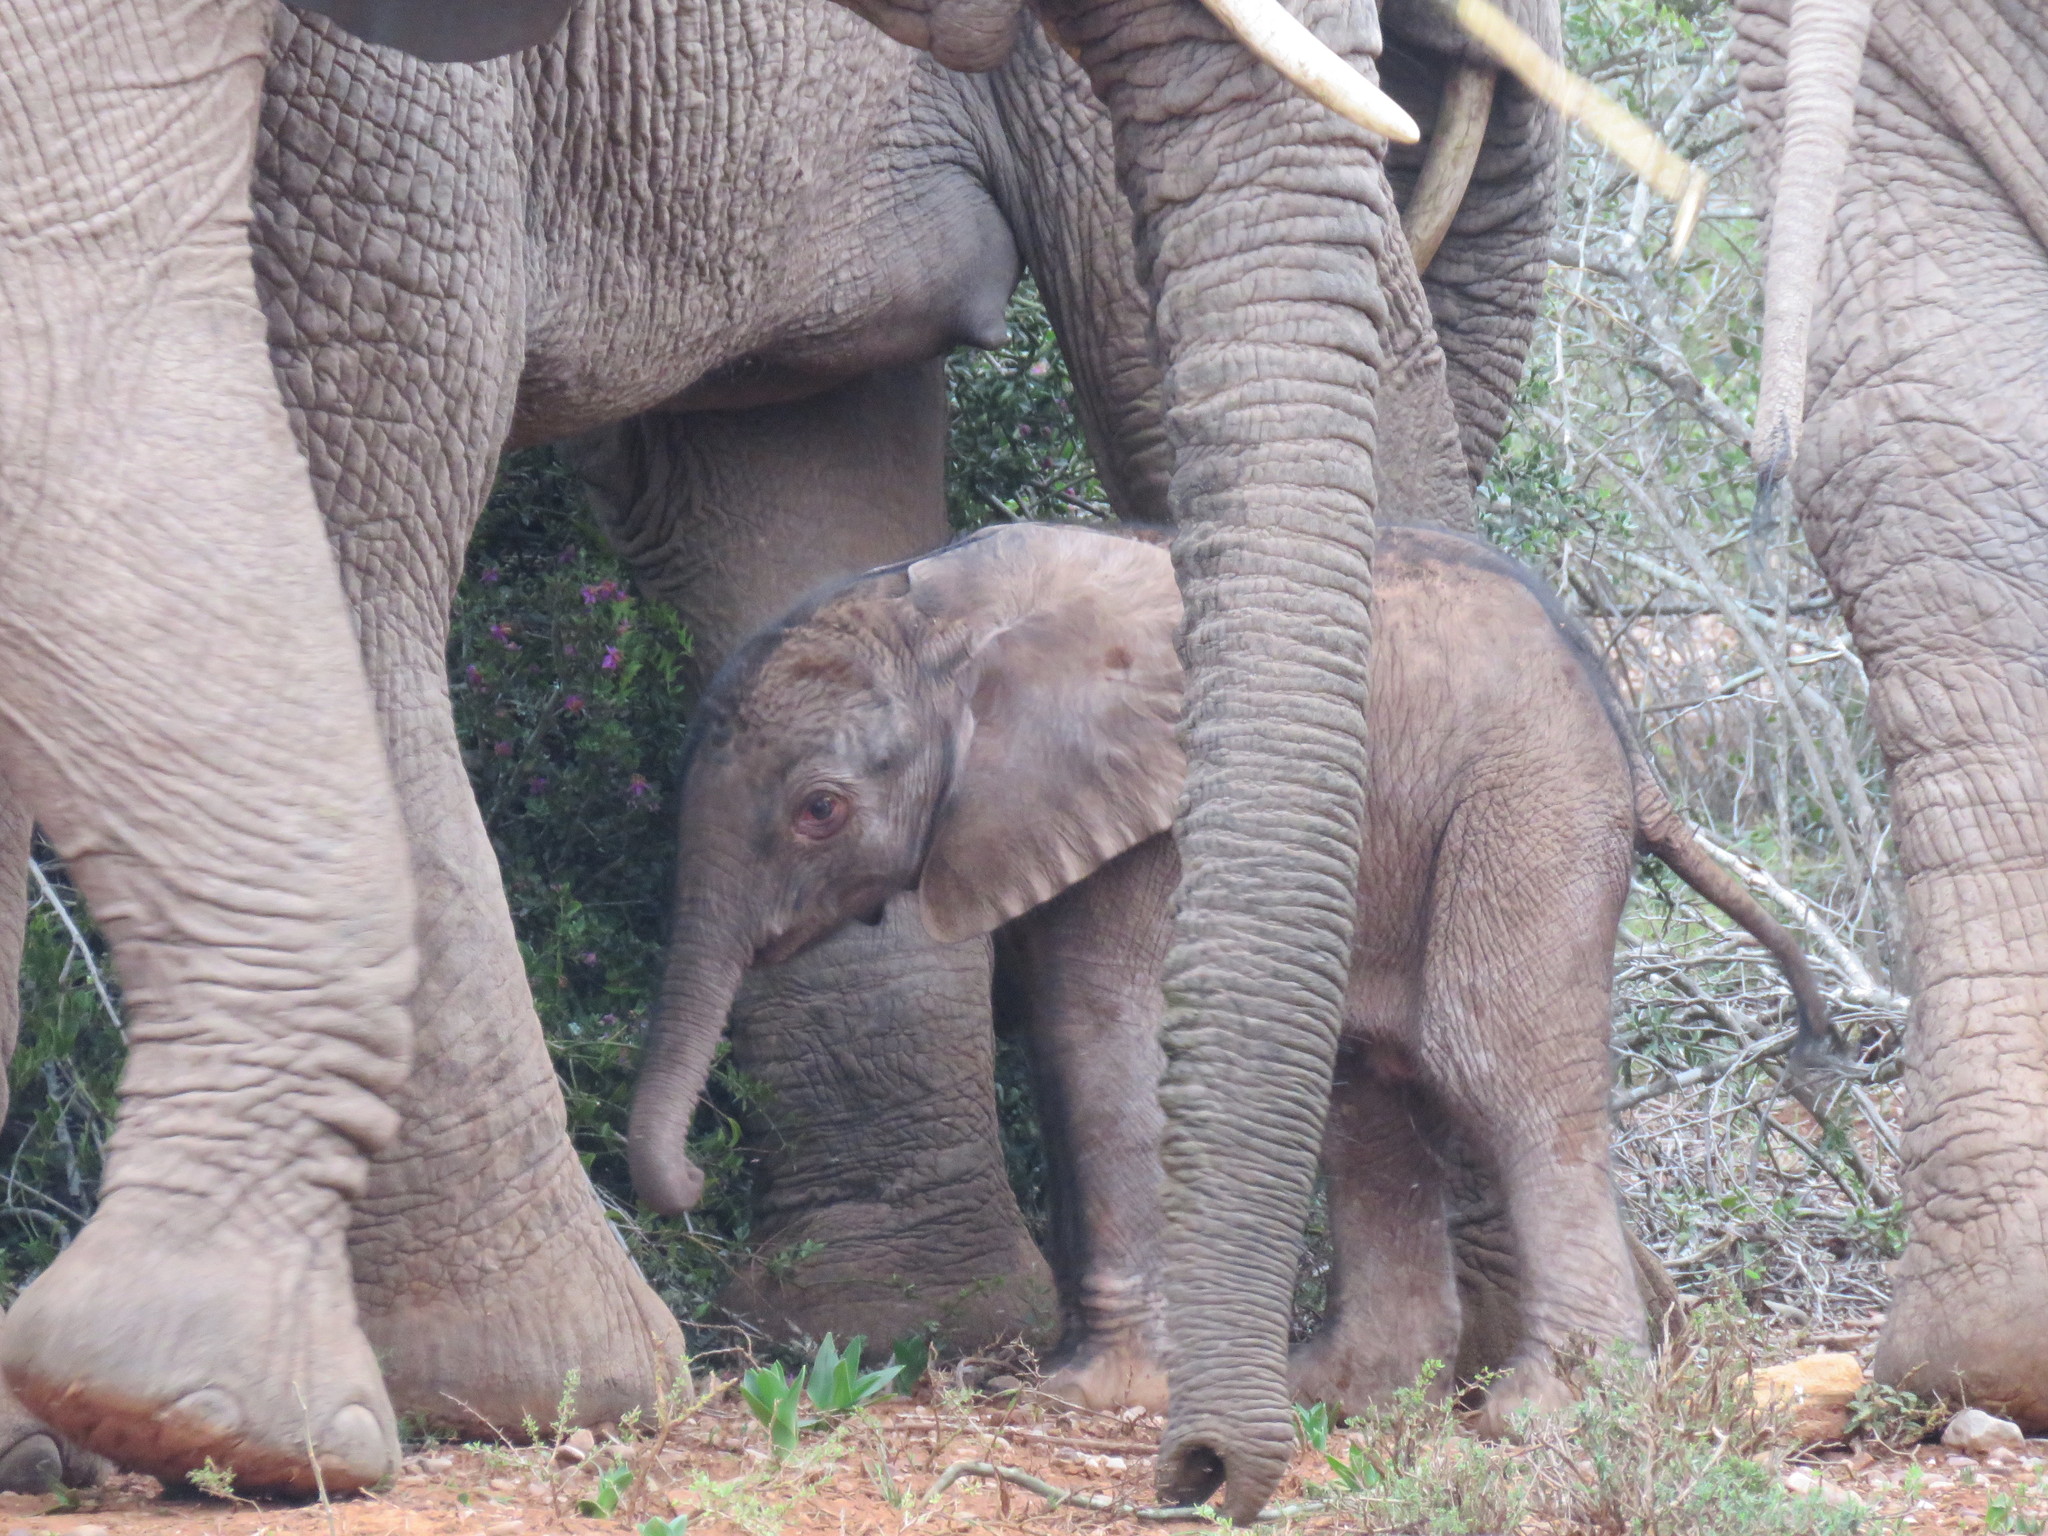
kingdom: Animalia
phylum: Chordata
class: Mammalia
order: Proboscidea
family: Elephantidae
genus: Loxodonta
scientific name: Loxodonta africana
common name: African elephant
